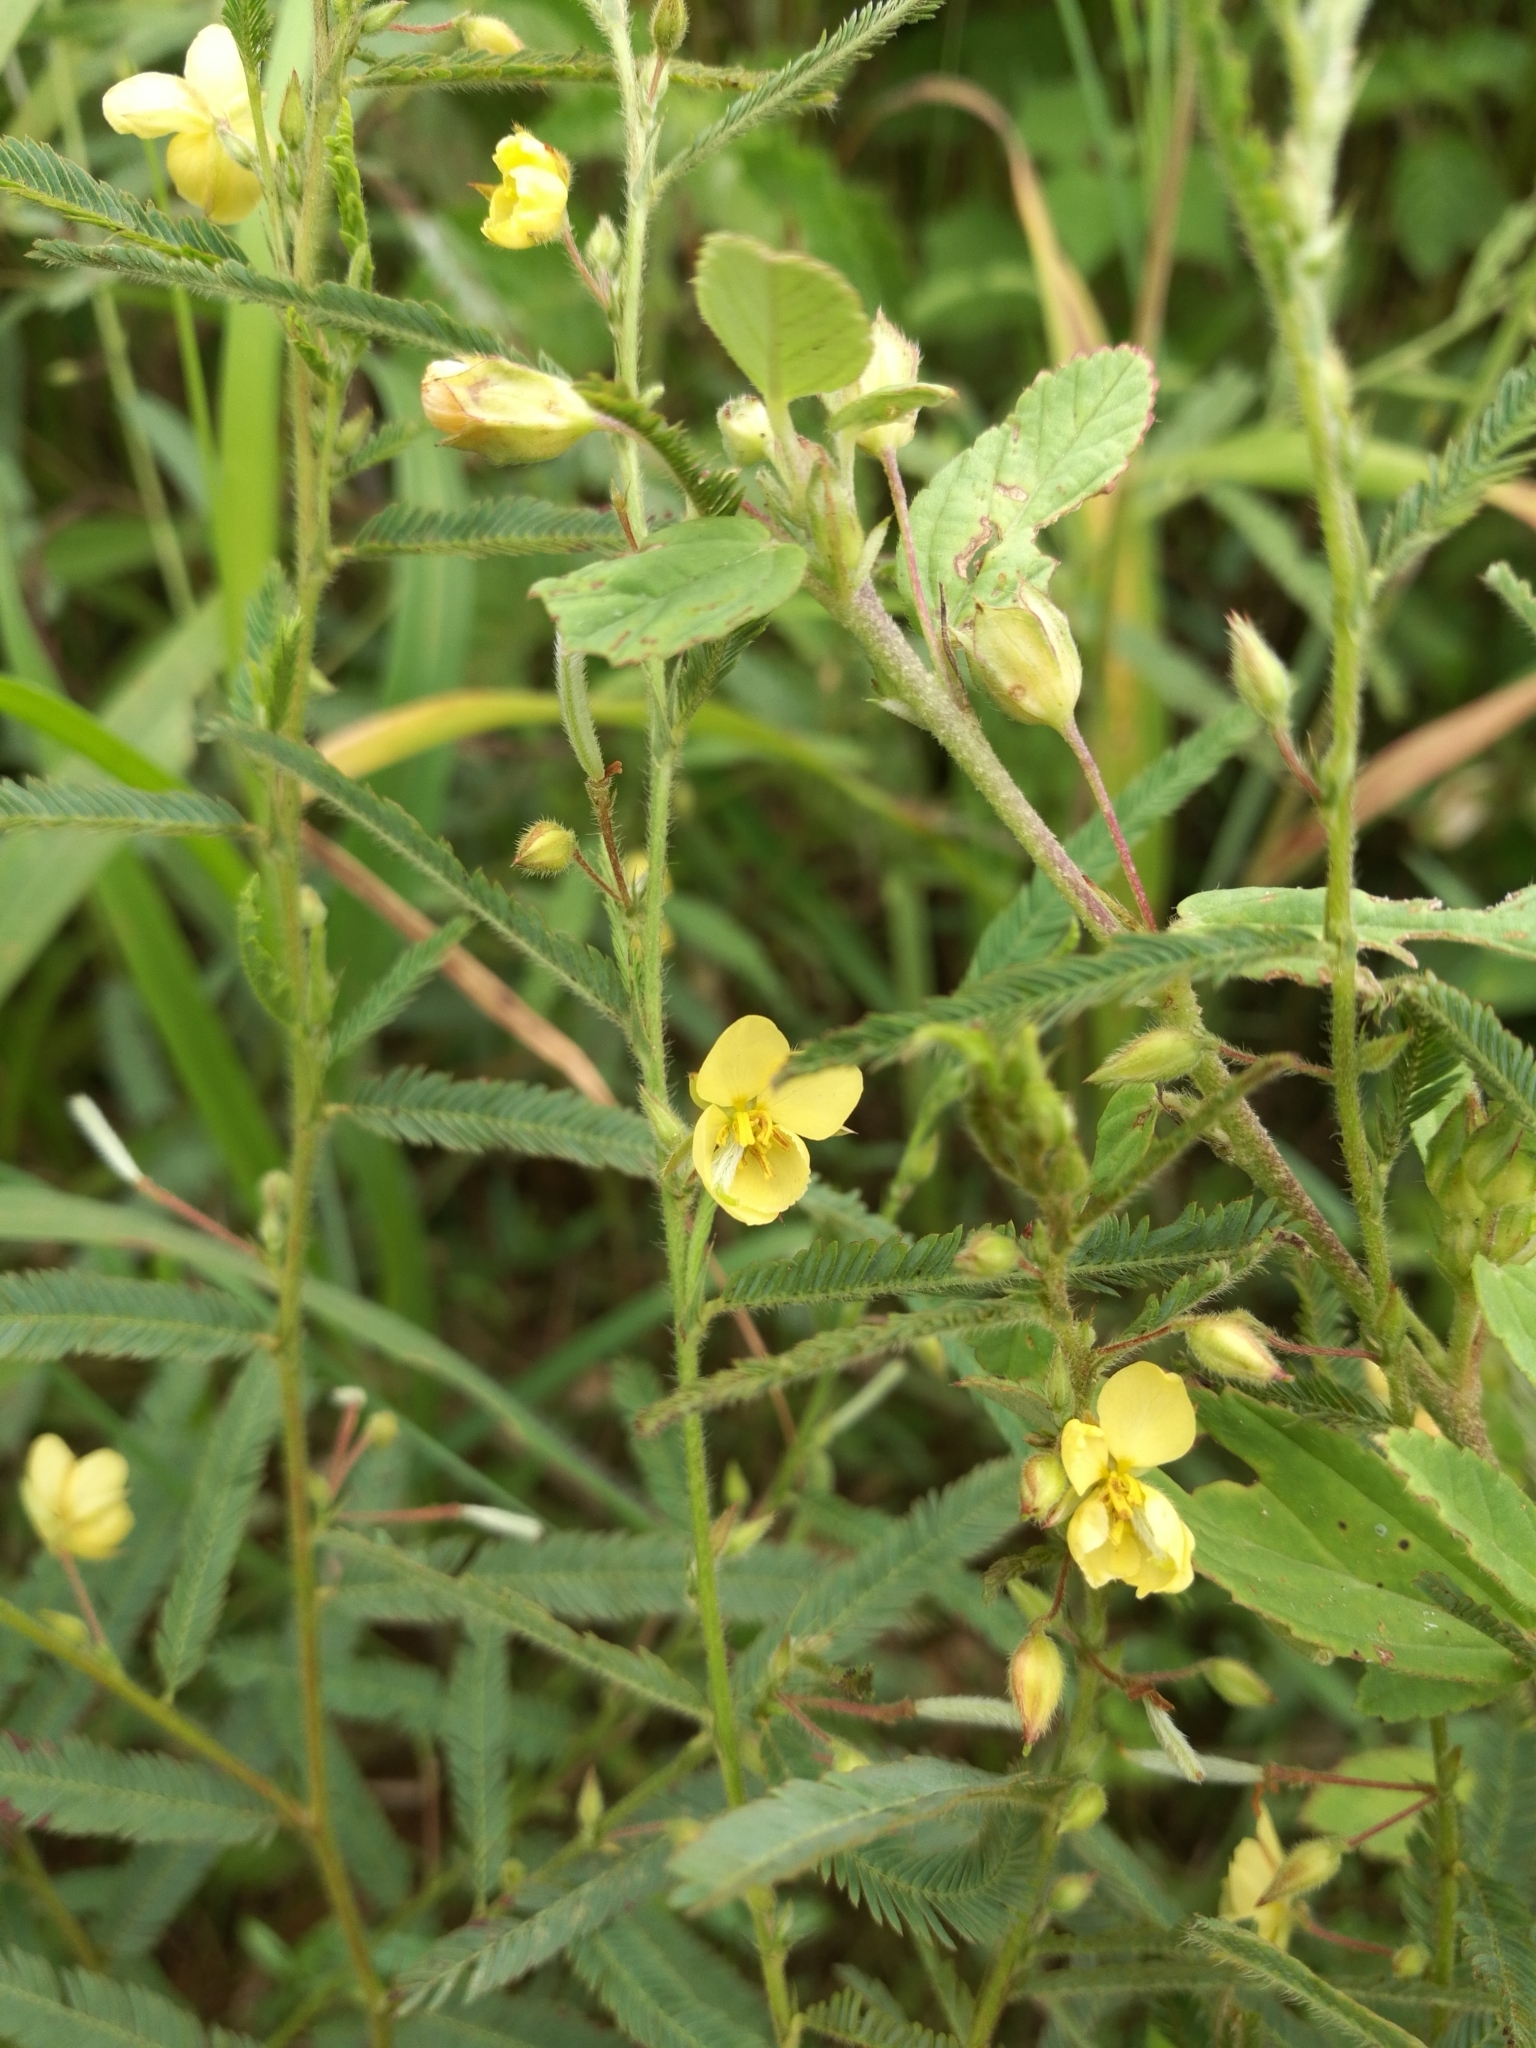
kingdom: Plantae
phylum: Tracheophyta
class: Magnoliopsida
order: Fabales
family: Fabaceae
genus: Chamaecrista
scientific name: Chamaecrista mimosoides
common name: Fish-bone cassia
